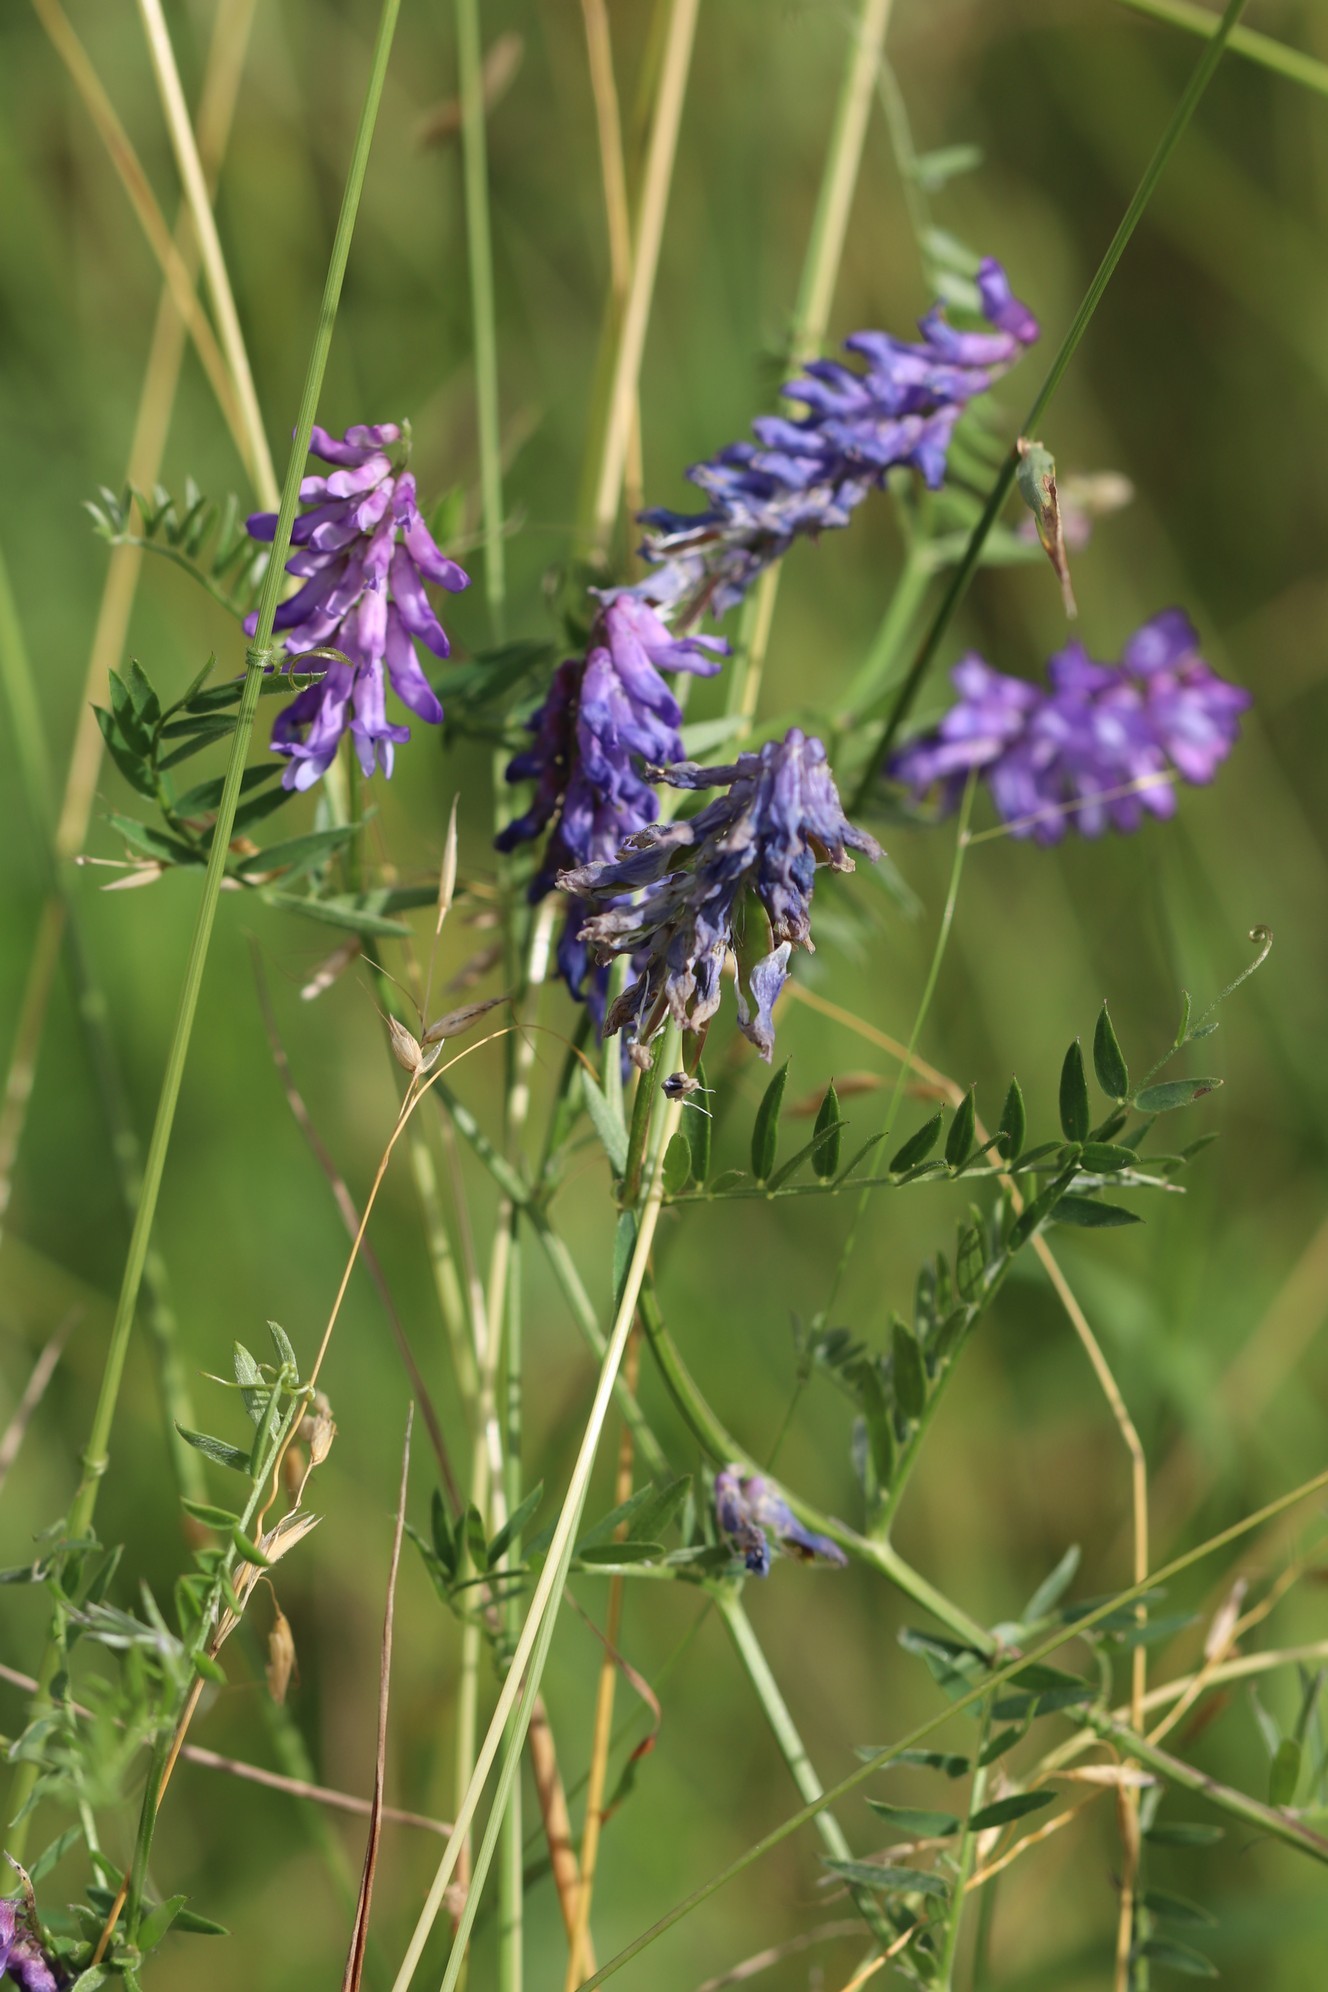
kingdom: Plantae
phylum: Tracheophyta
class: Magnoliopsida
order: Fabales
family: Fabaceae
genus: Vicia
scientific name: Vicia cracca
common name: Bird vetch
